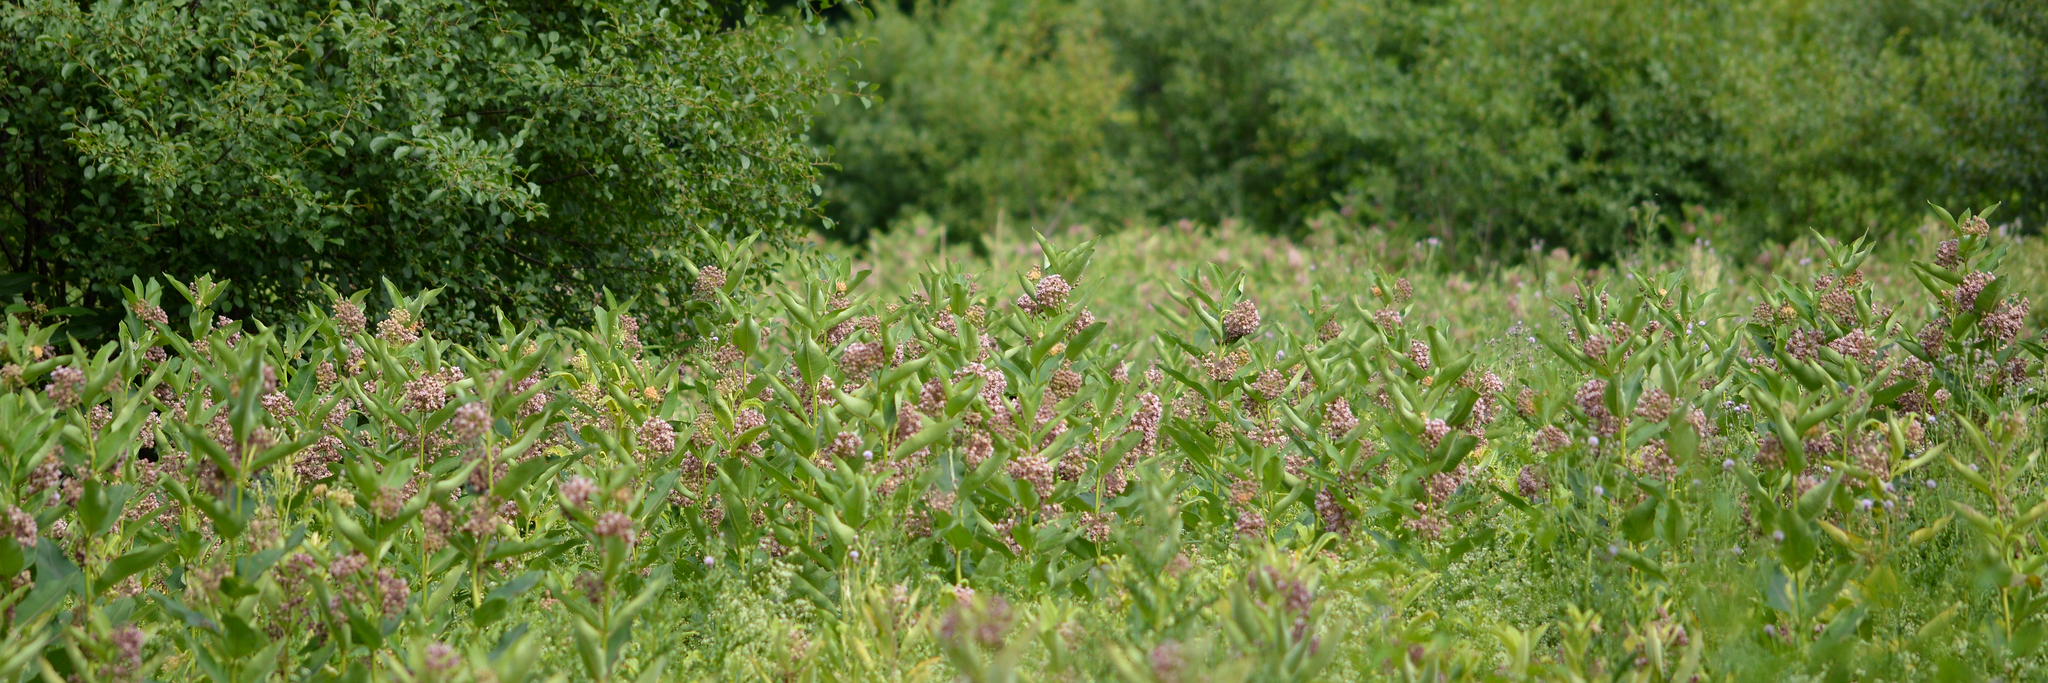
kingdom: Plantae
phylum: Tracheophyta
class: Magnoliopsida
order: Gentianales
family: Apocynaceae
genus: Asclepias
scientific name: Asclepias syriaca
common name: Common milkweed
